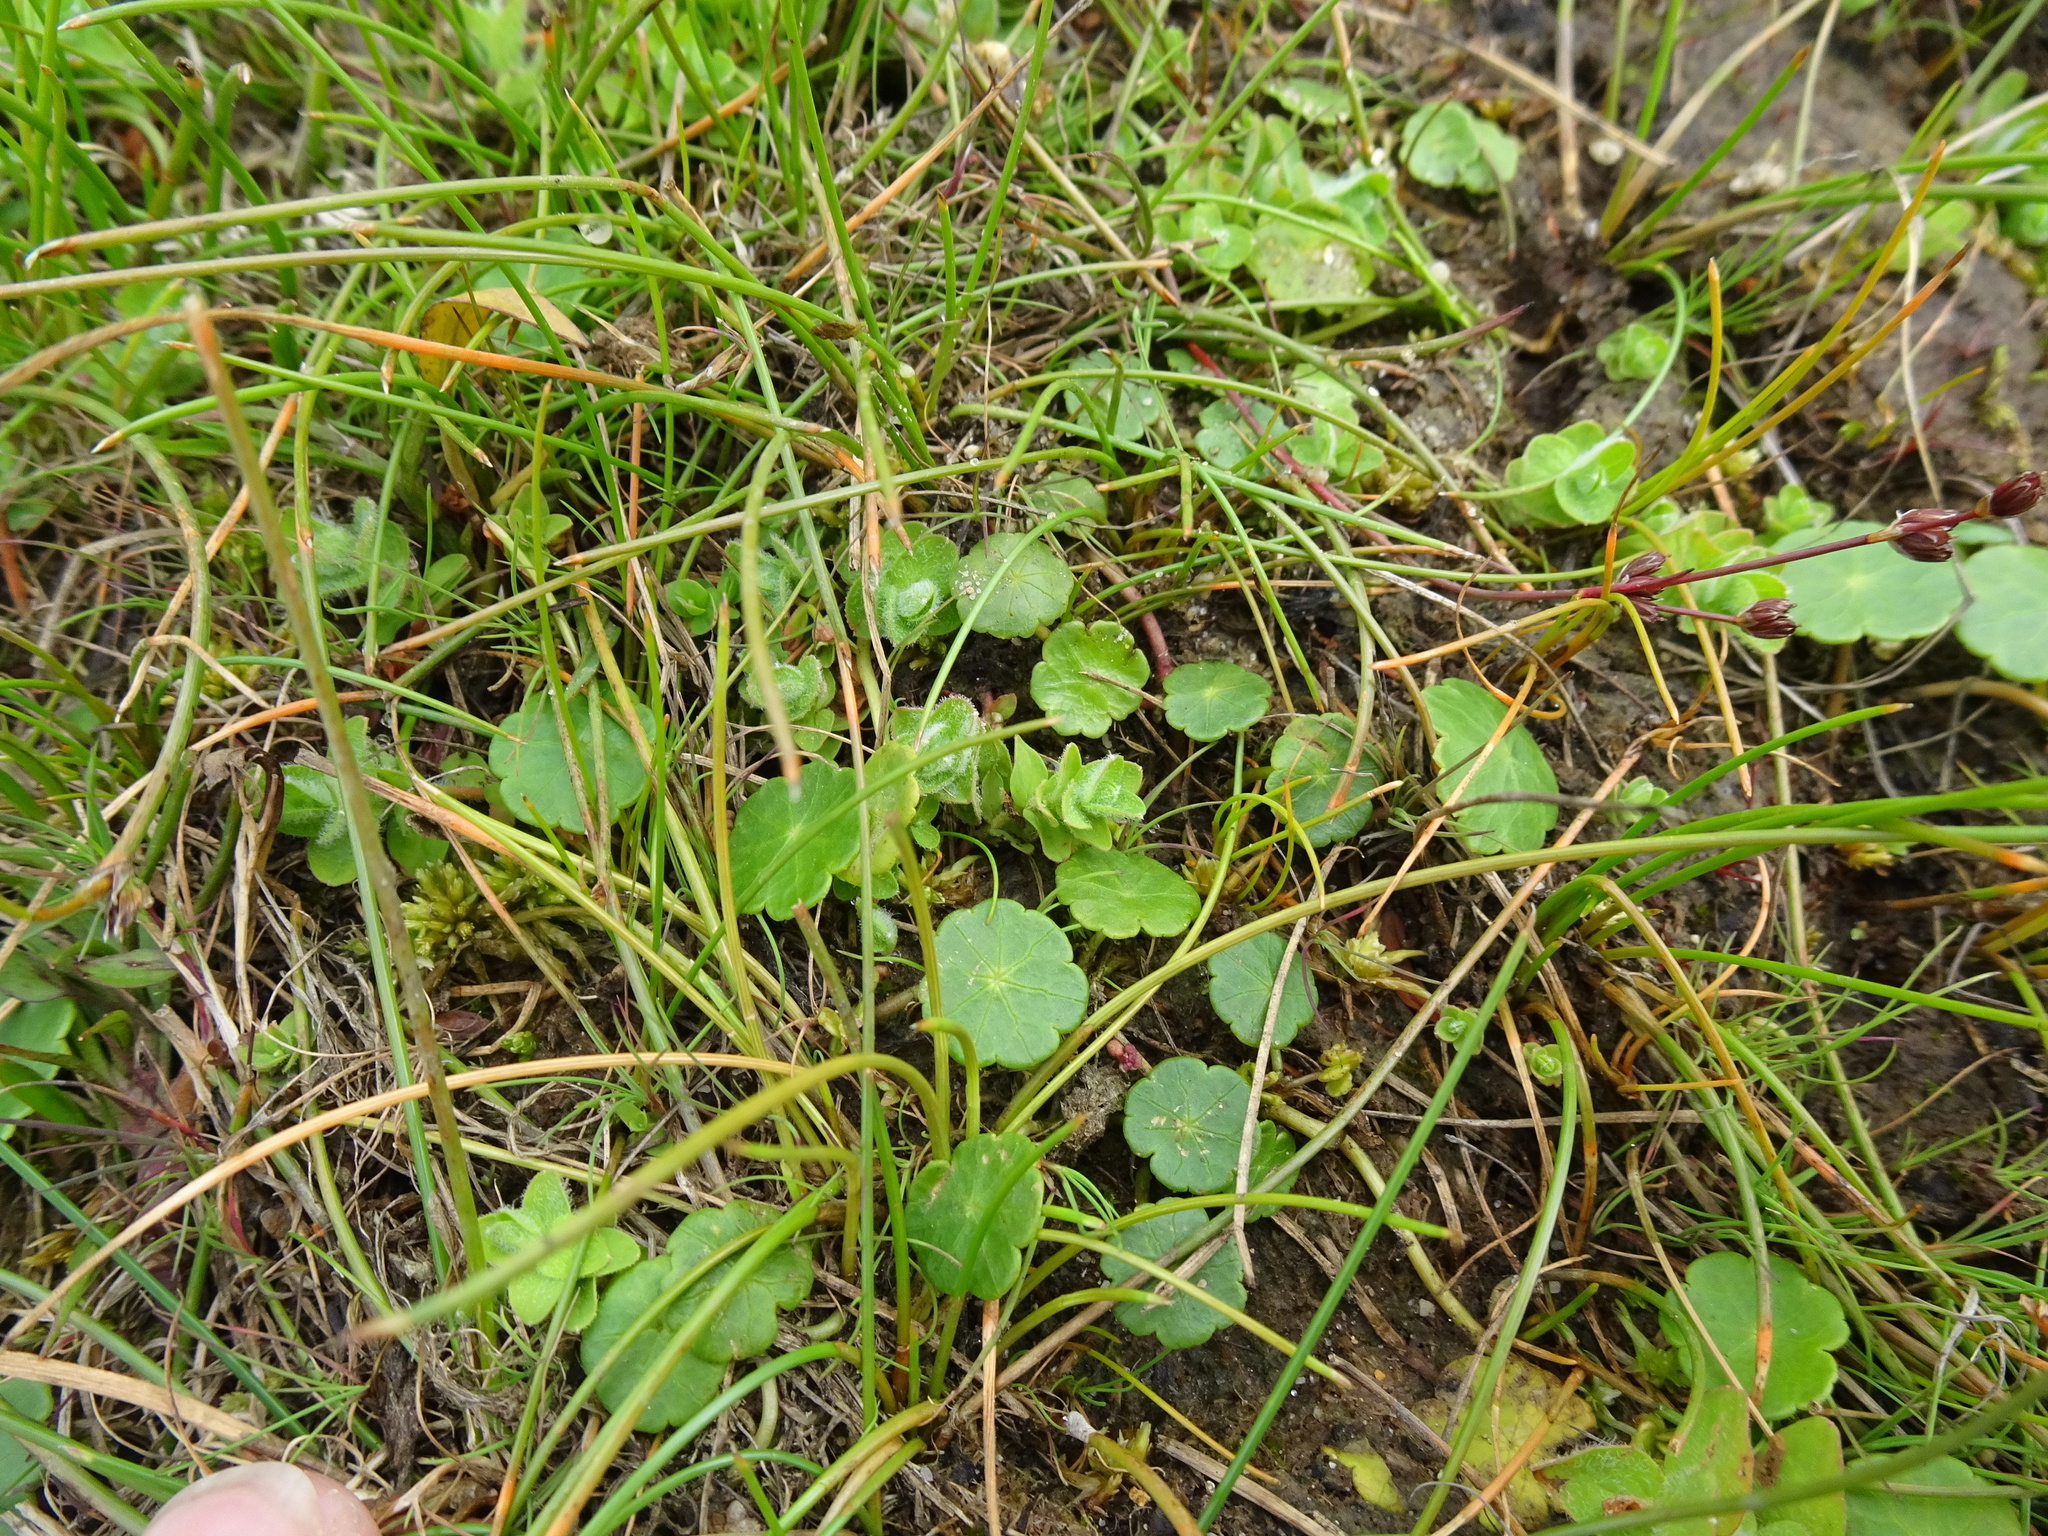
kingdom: Plantae
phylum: Tracheophyta
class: Magnoliopsida
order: Apiales
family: Araliaceae
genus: Hydrocotyle
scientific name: Hydrocotyle vulgaris
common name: Marsh pennywort
